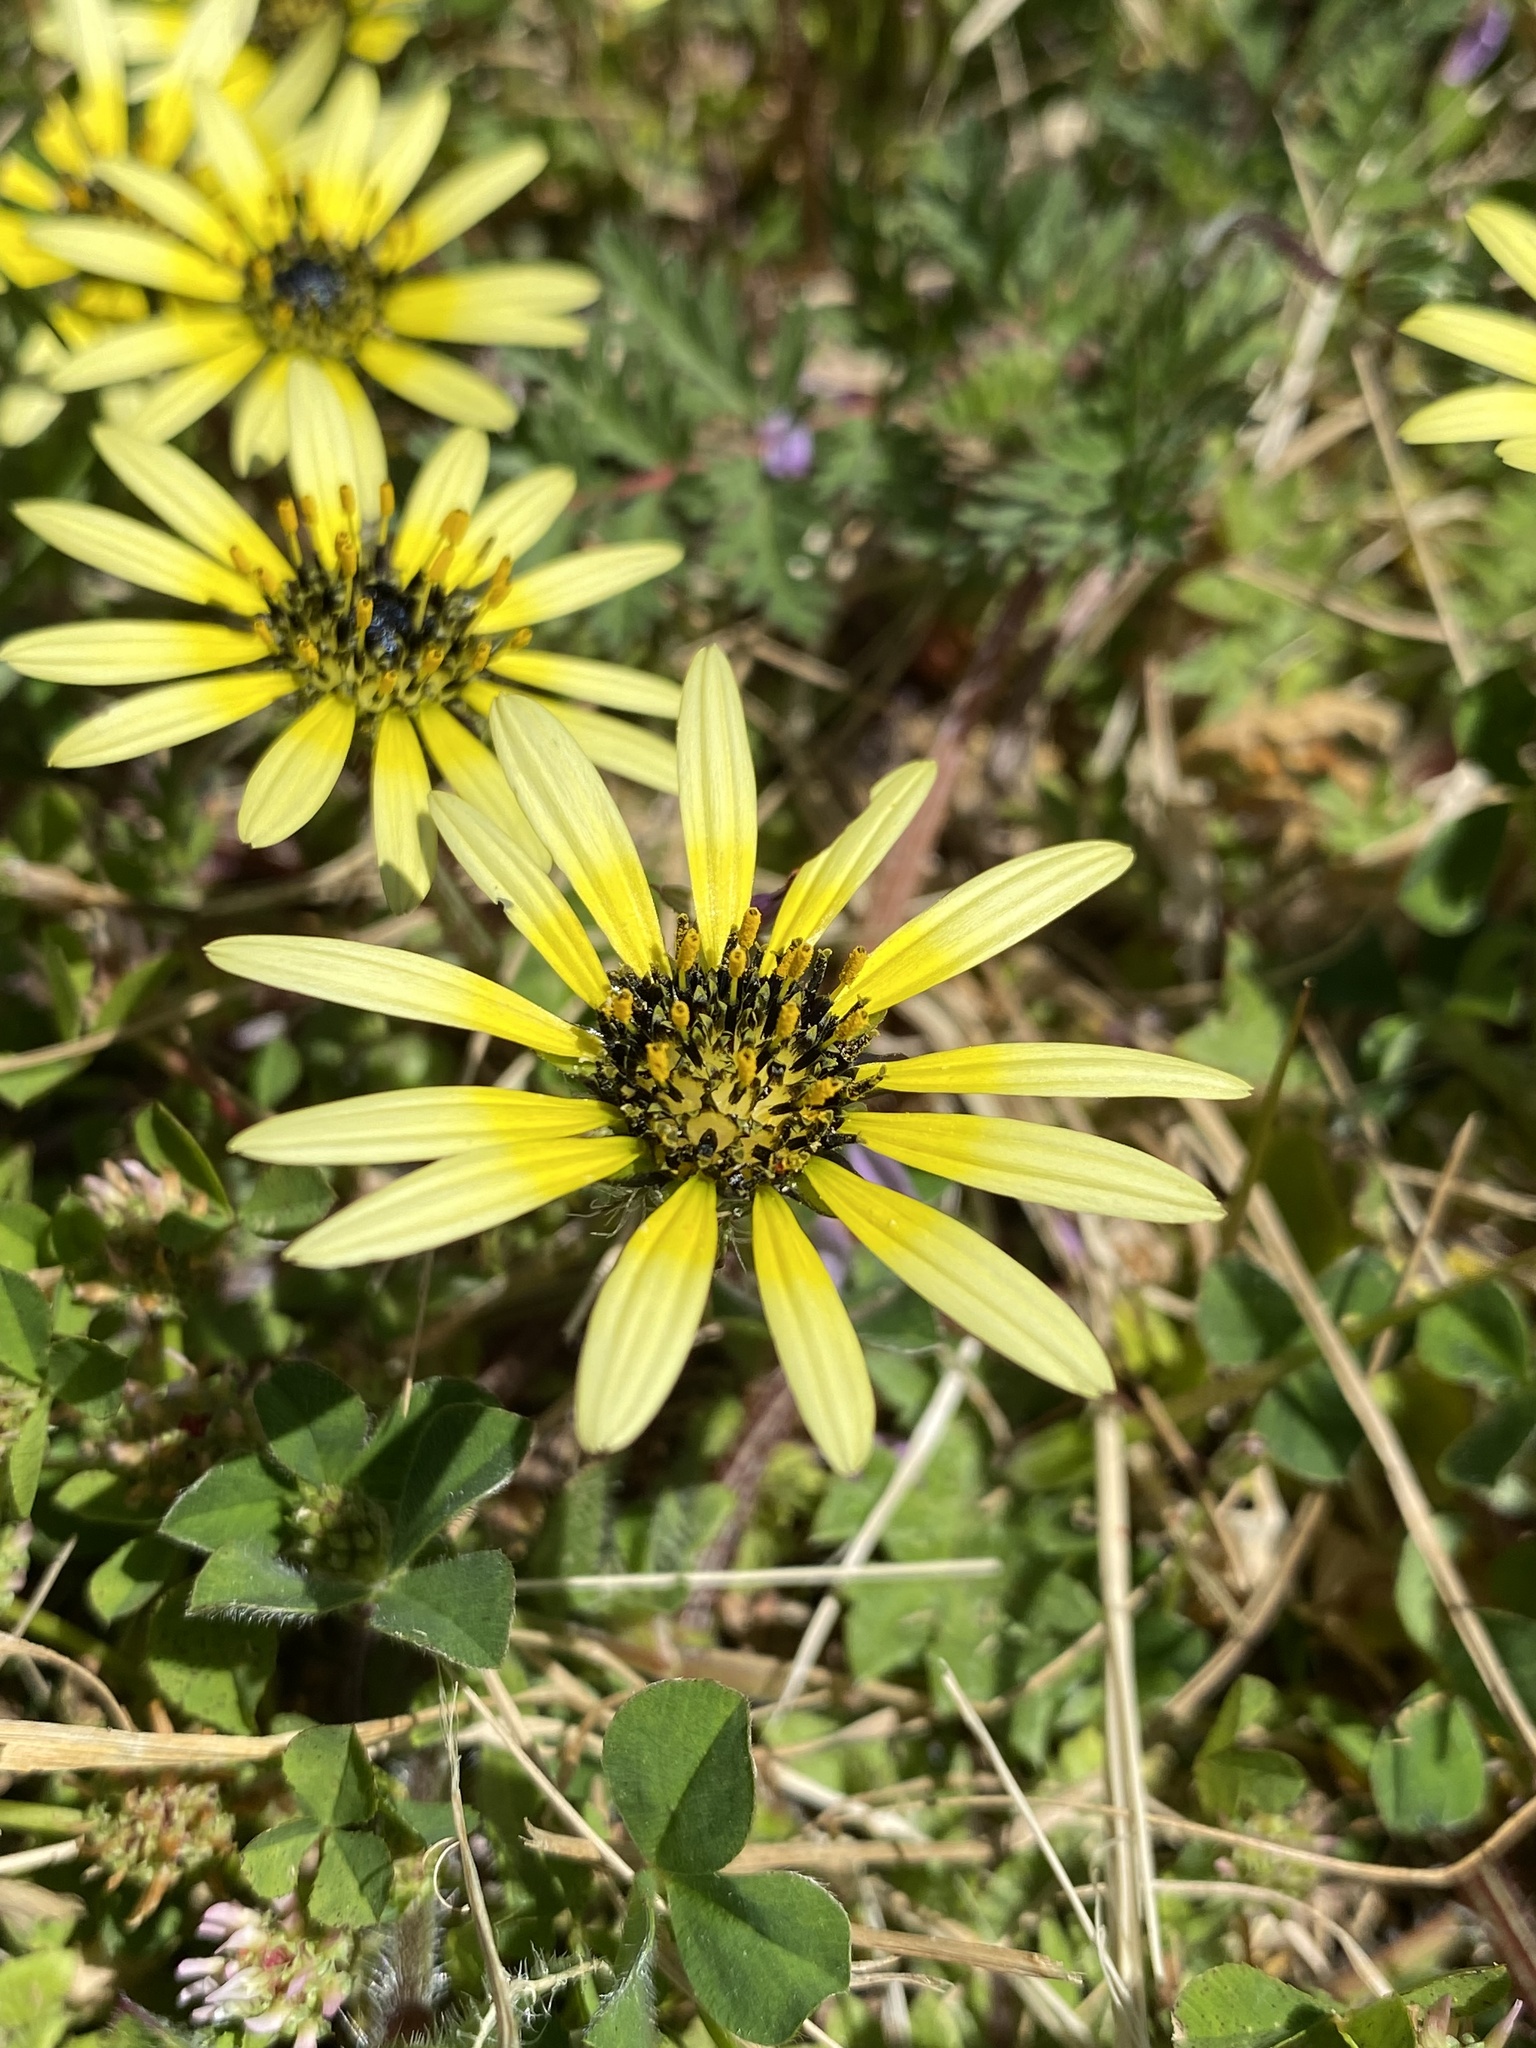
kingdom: Plantae
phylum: Tracheophyta
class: Magnoliopsida
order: Asterales
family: Asteraceae
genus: Arctotheca
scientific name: Arctotheca calendula
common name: Capeweed
